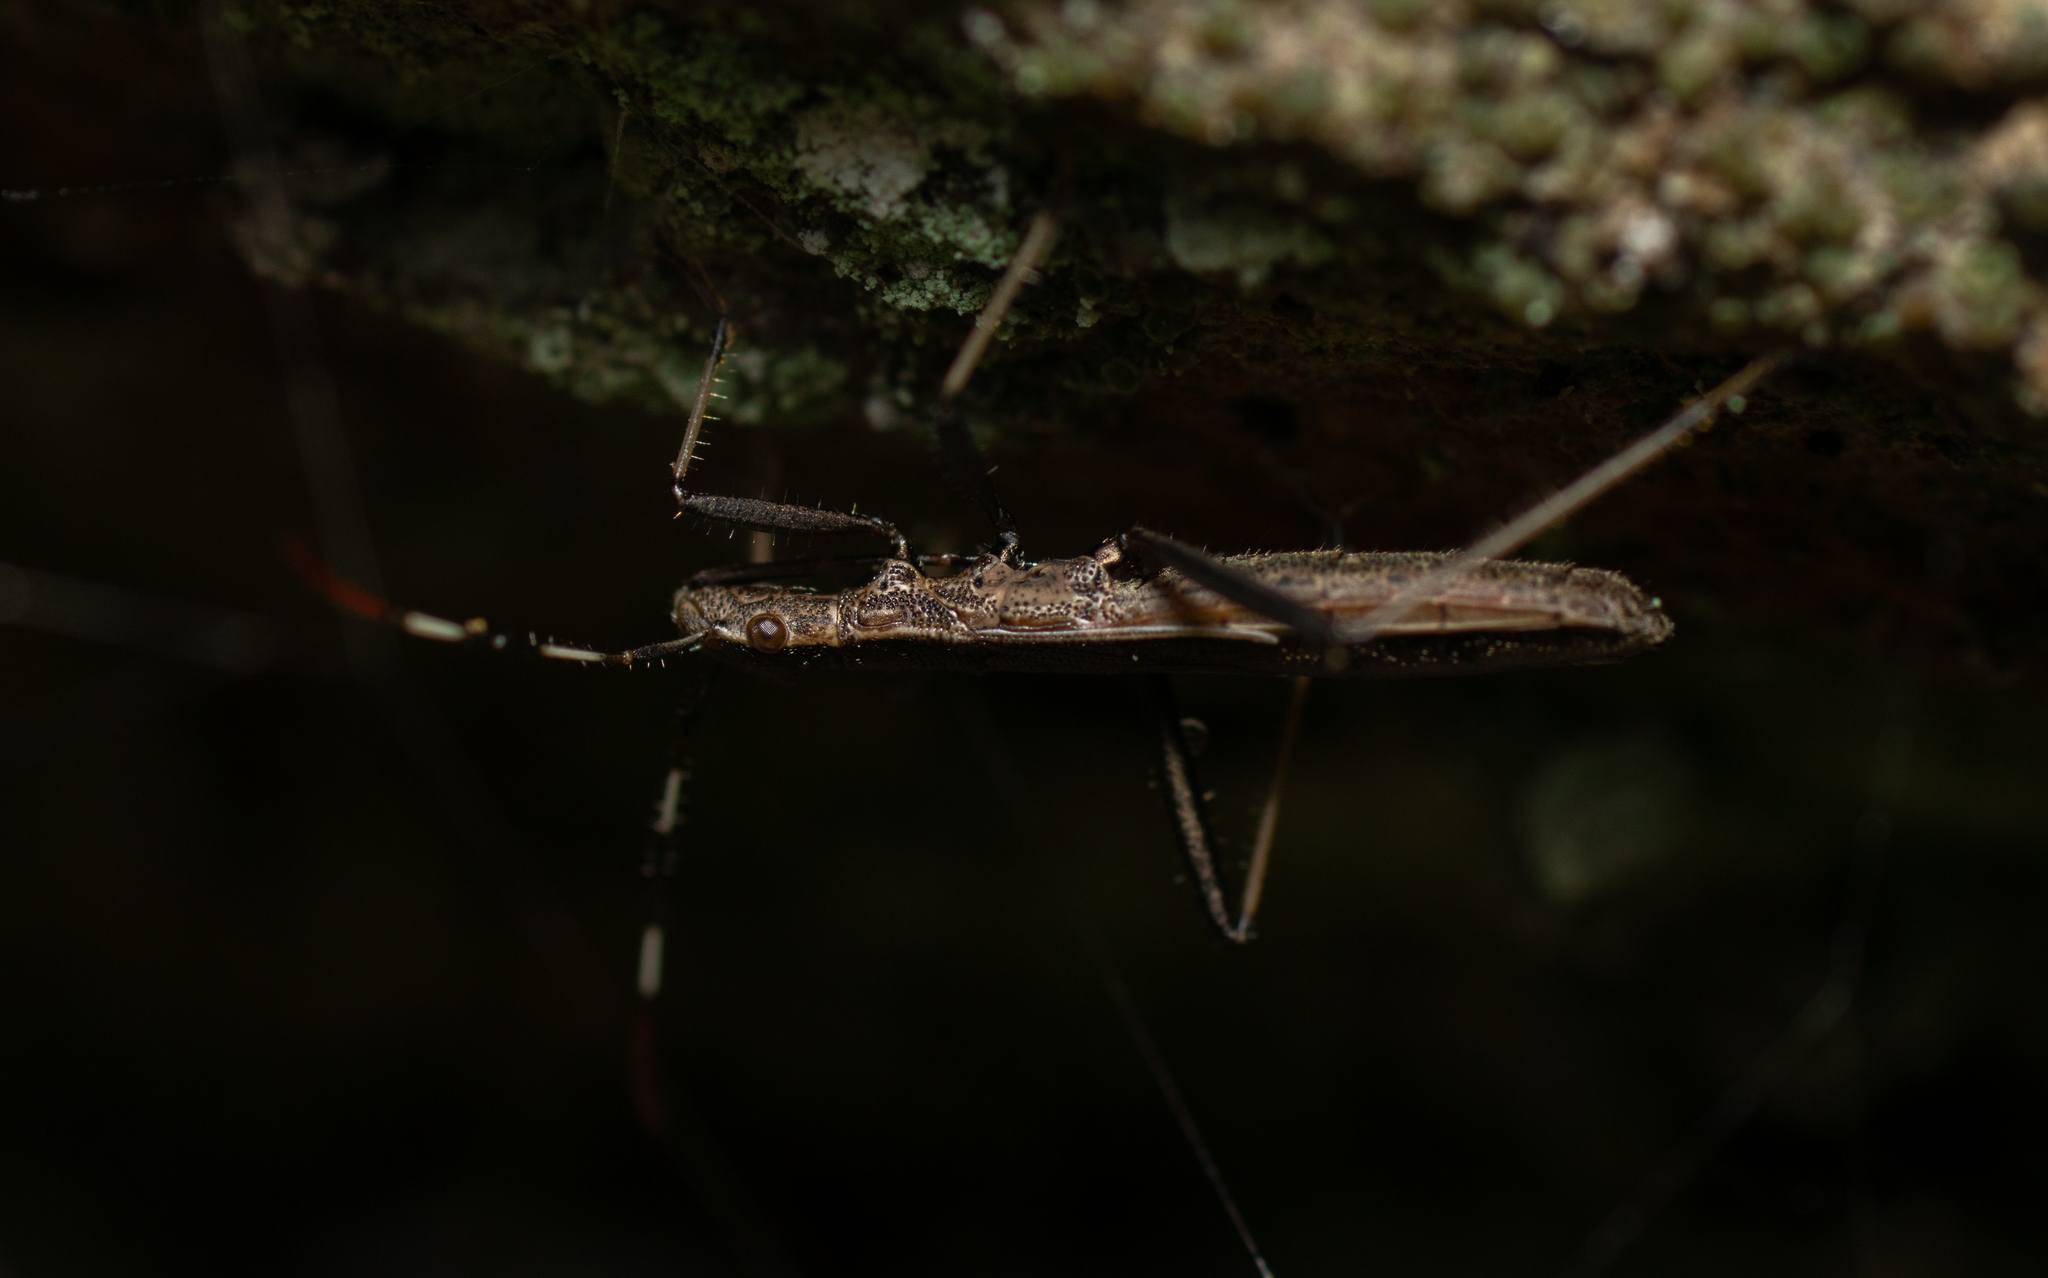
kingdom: Animalia
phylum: Arthropoda
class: Insecta
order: Hemiptera
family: Alydidae
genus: Micrelytra
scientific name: Micrelytra fossularum
